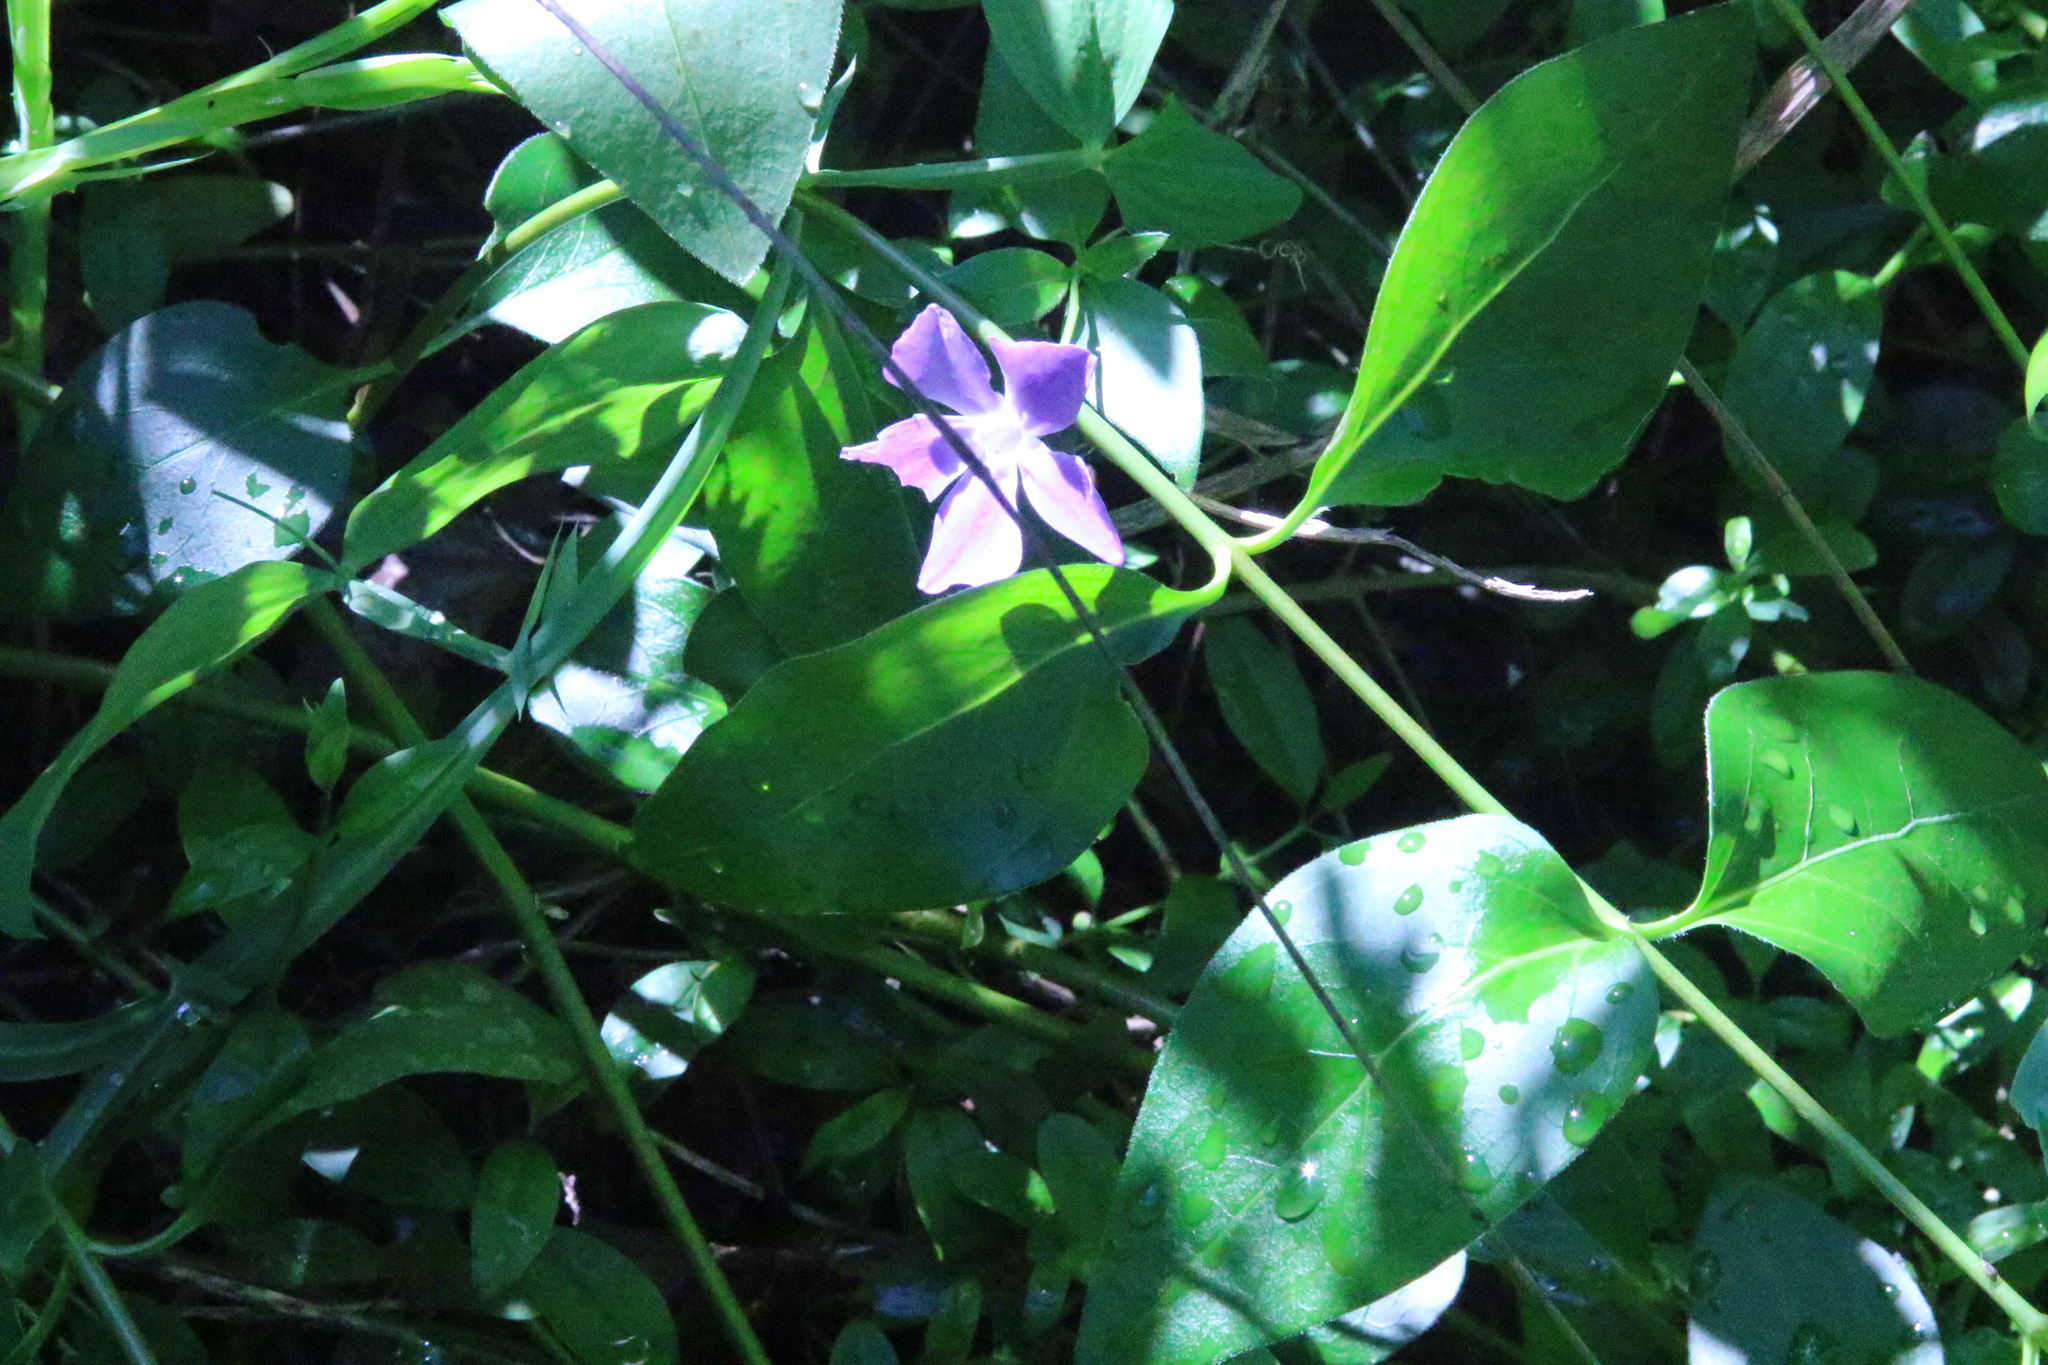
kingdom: Plantae
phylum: Tracheophyta
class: Magnoliopsida
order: Gentianales
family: Apocynaceae
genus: Vinca
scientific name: Vinca major
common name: Greater periwinkle
